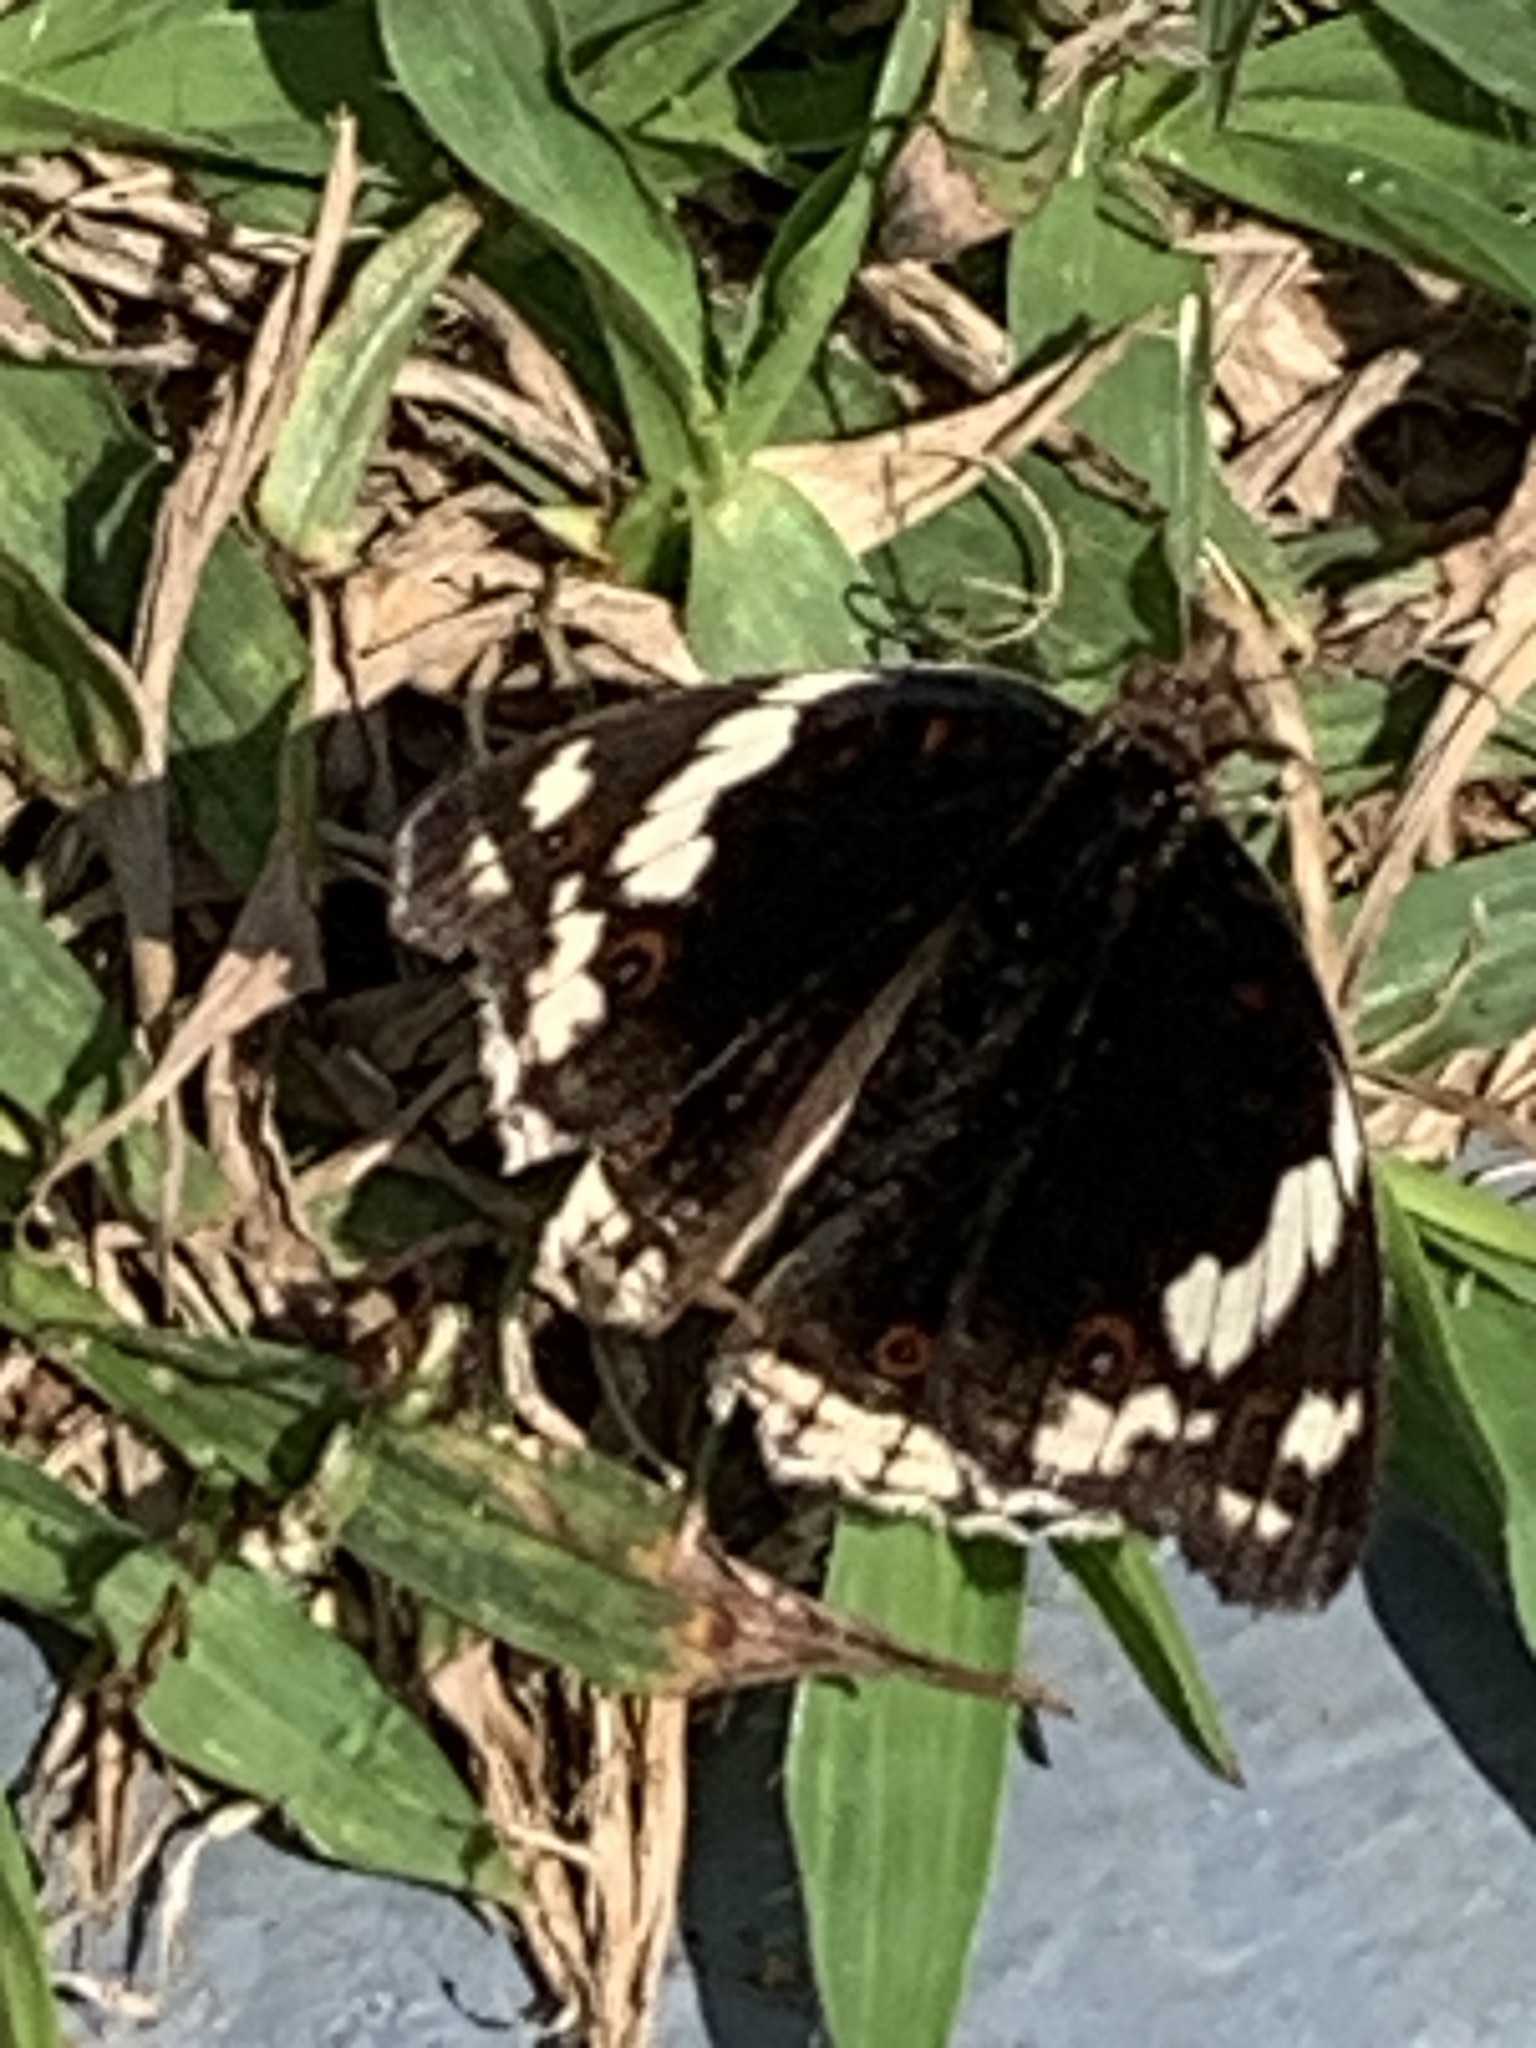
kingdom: Animalia
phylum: Arthropoda
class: Insecta
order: Lepidoptera
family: Nymphalidae
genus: Junonia
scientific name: Junonia oenone
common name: Dark blue pansy
